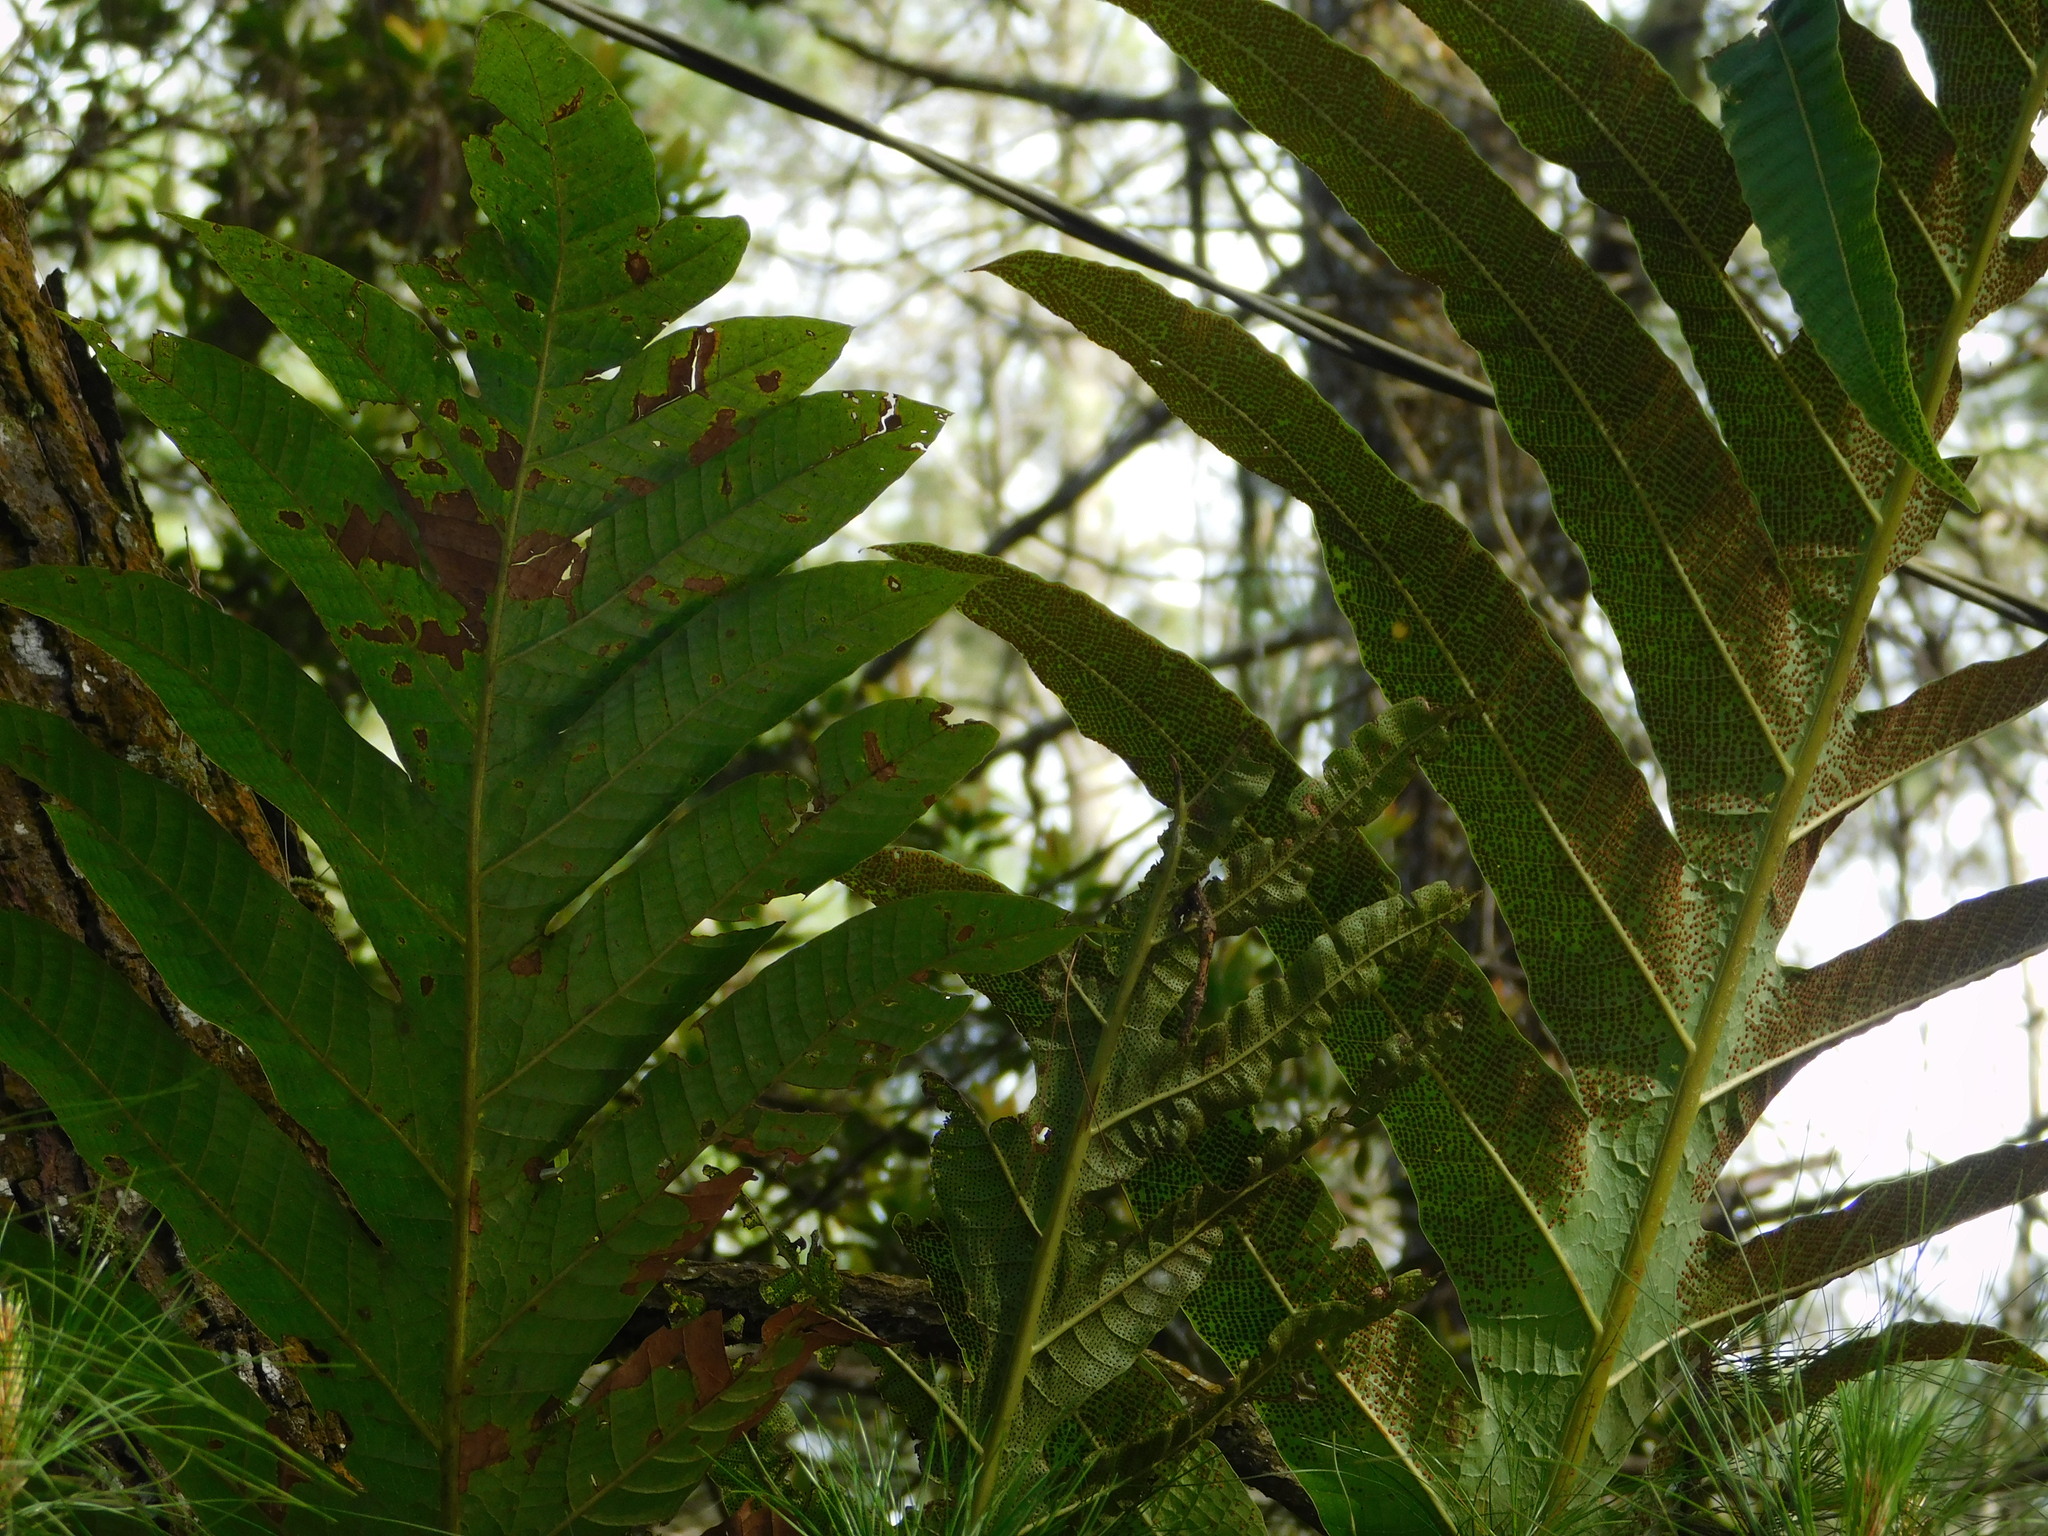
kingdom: Plantae
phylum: Tracheophyta
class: Polypodiopsida
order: Polypodiales
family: Polypodiaceae
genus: Drynaria
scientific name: Drynaria heraclea
